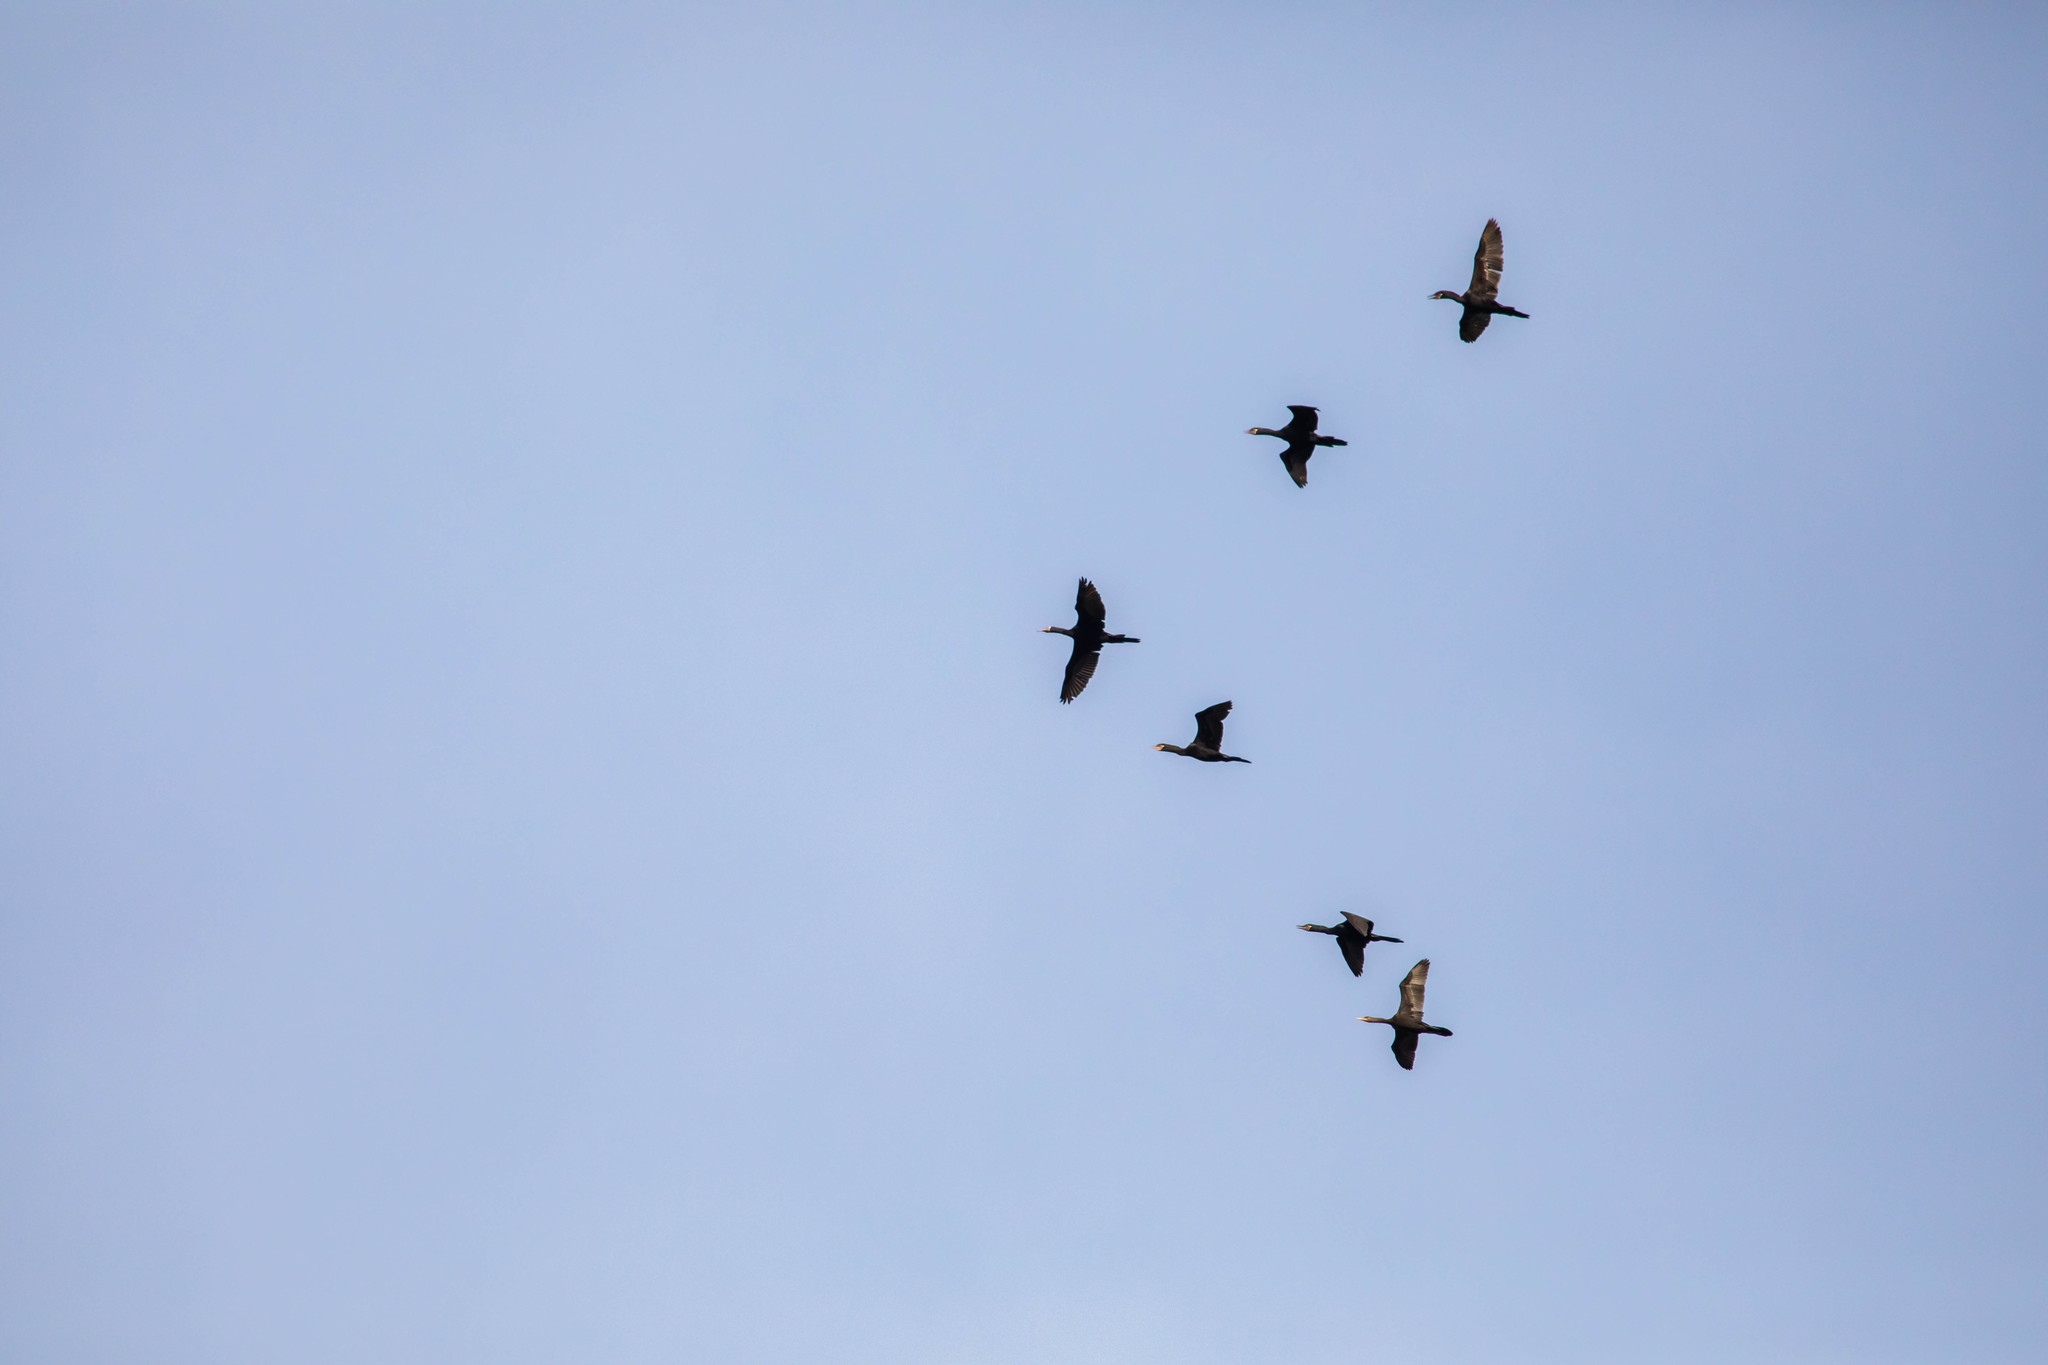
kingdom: Animalia
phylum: Chordata
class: Aves
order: Suliformes
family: Phalacrocoracidae
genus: Phalacrocorax
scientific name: Phalacrocorax brasilianus
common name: Neotropic cormorant
